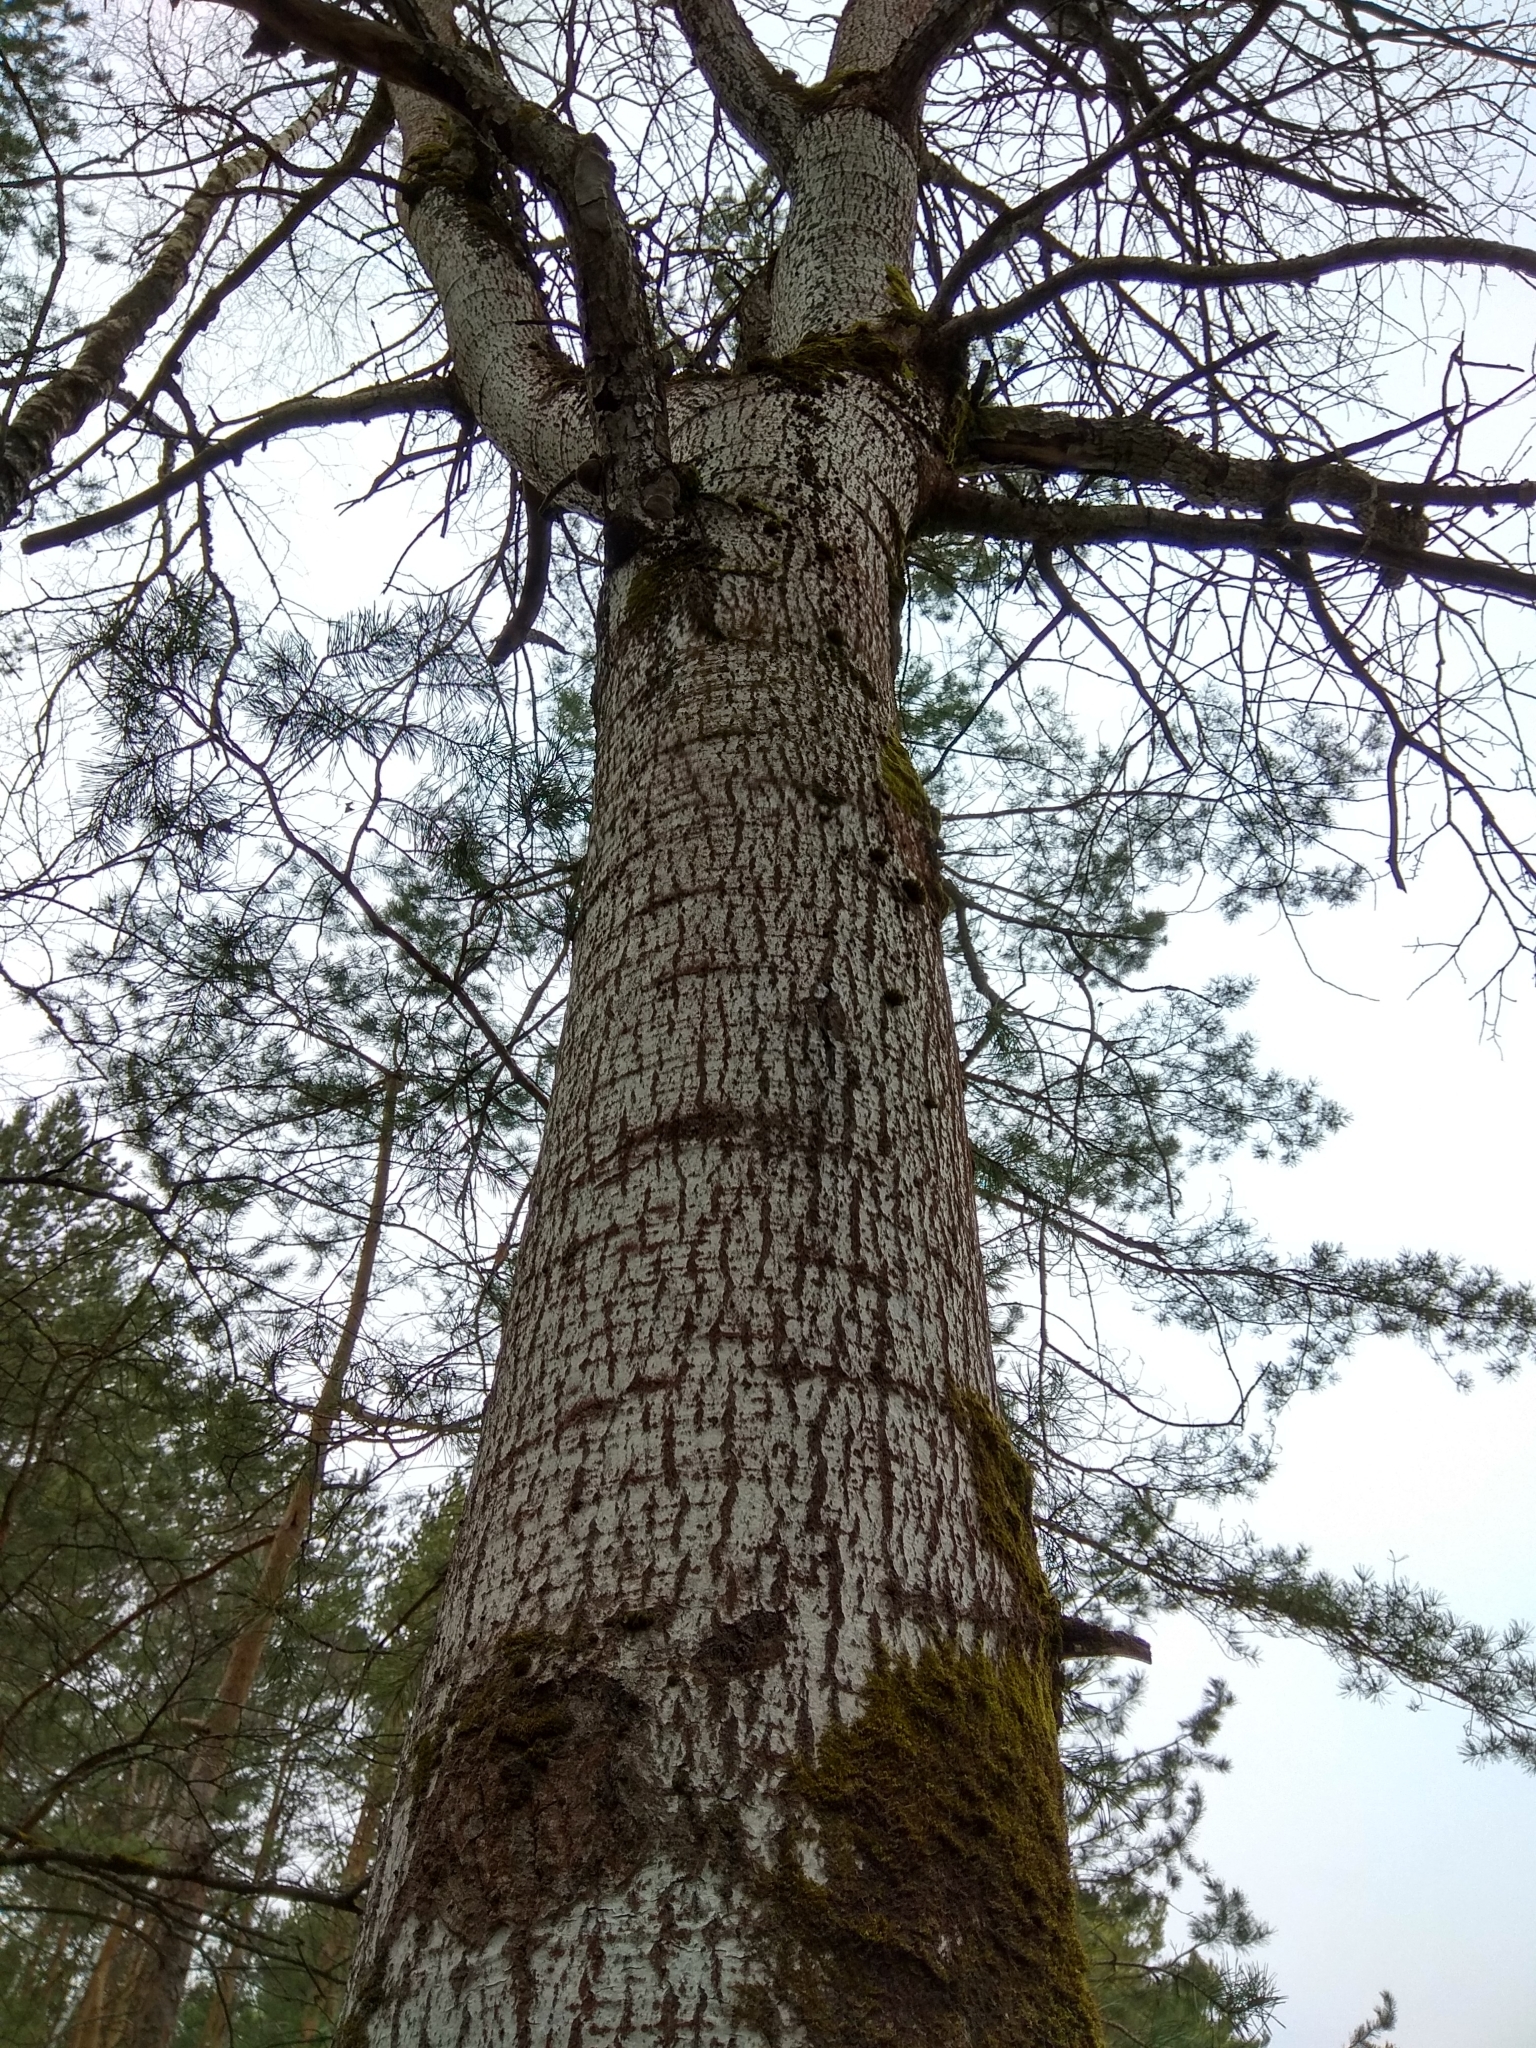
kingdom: Plantae
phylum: Tracheophyta
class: Magnoliopsida
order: Malpighiales
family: Salicaceae
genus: Populus
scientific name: Populus tremula
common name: European aspen
